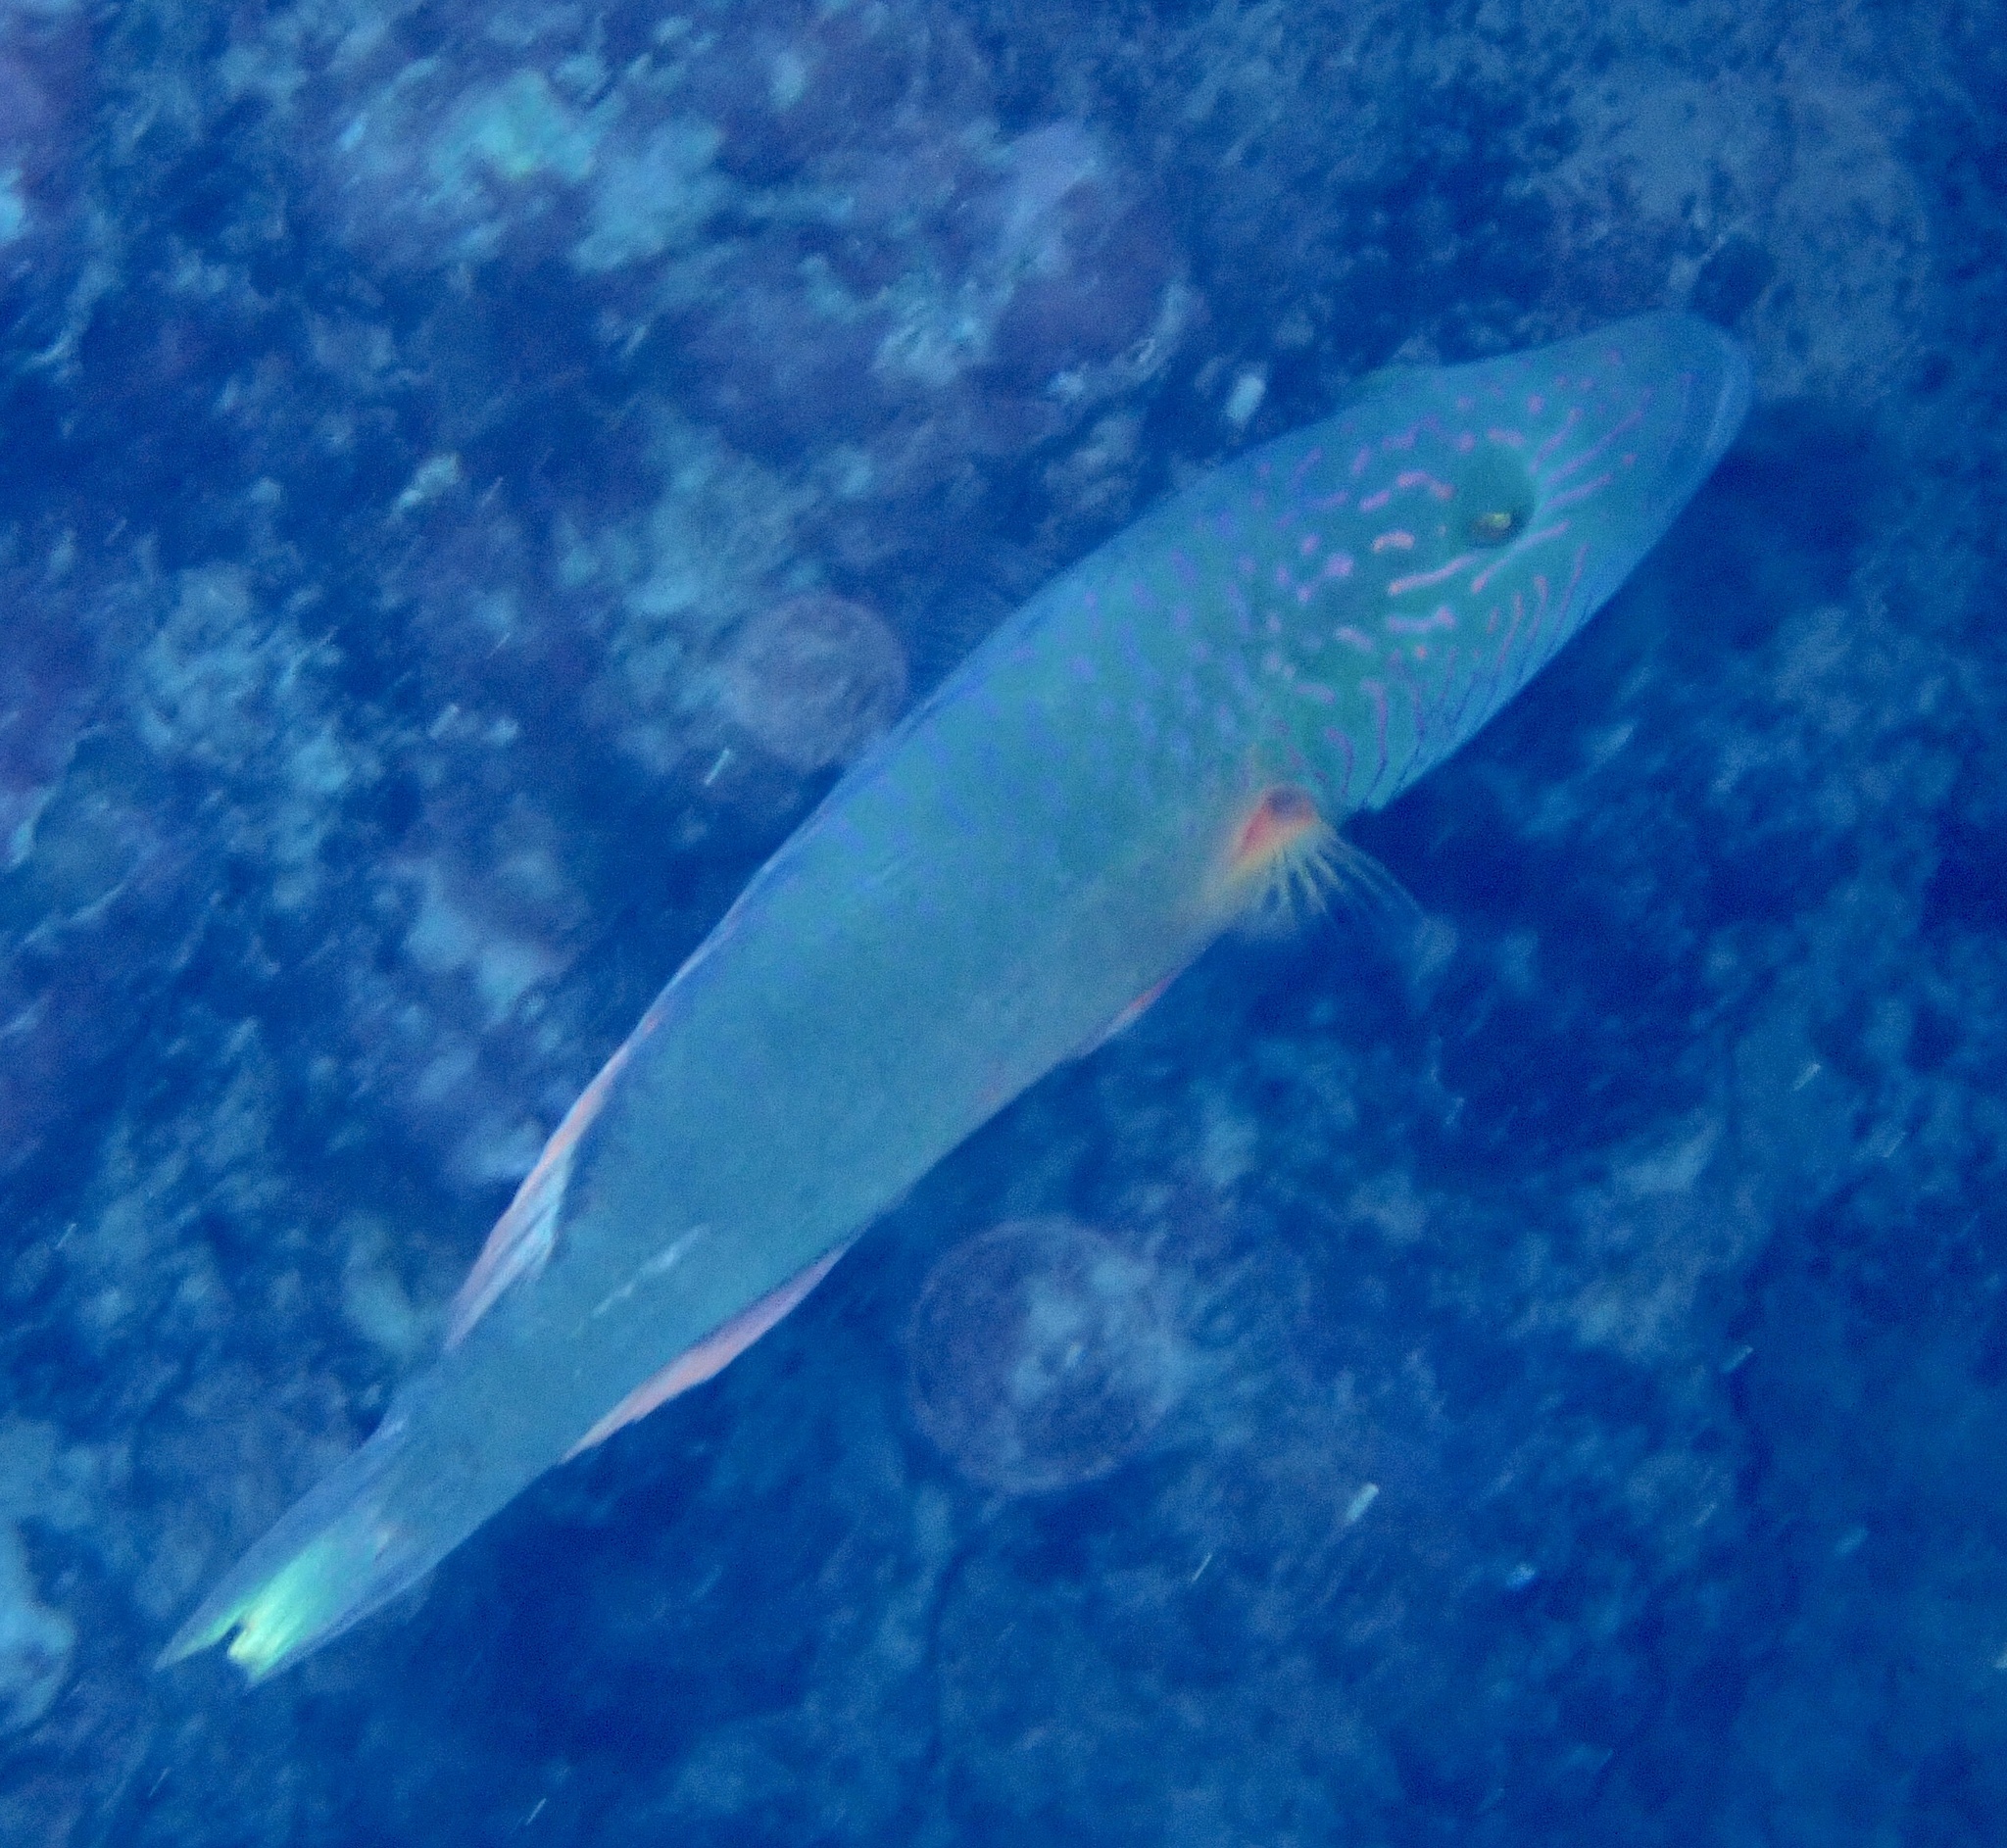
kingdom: Animalia
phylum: Chordata
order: Perciformes
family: Labridae
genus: Oxycheilinus
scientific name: Oxycheilinus digramma
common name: Bandcheek wrasse
